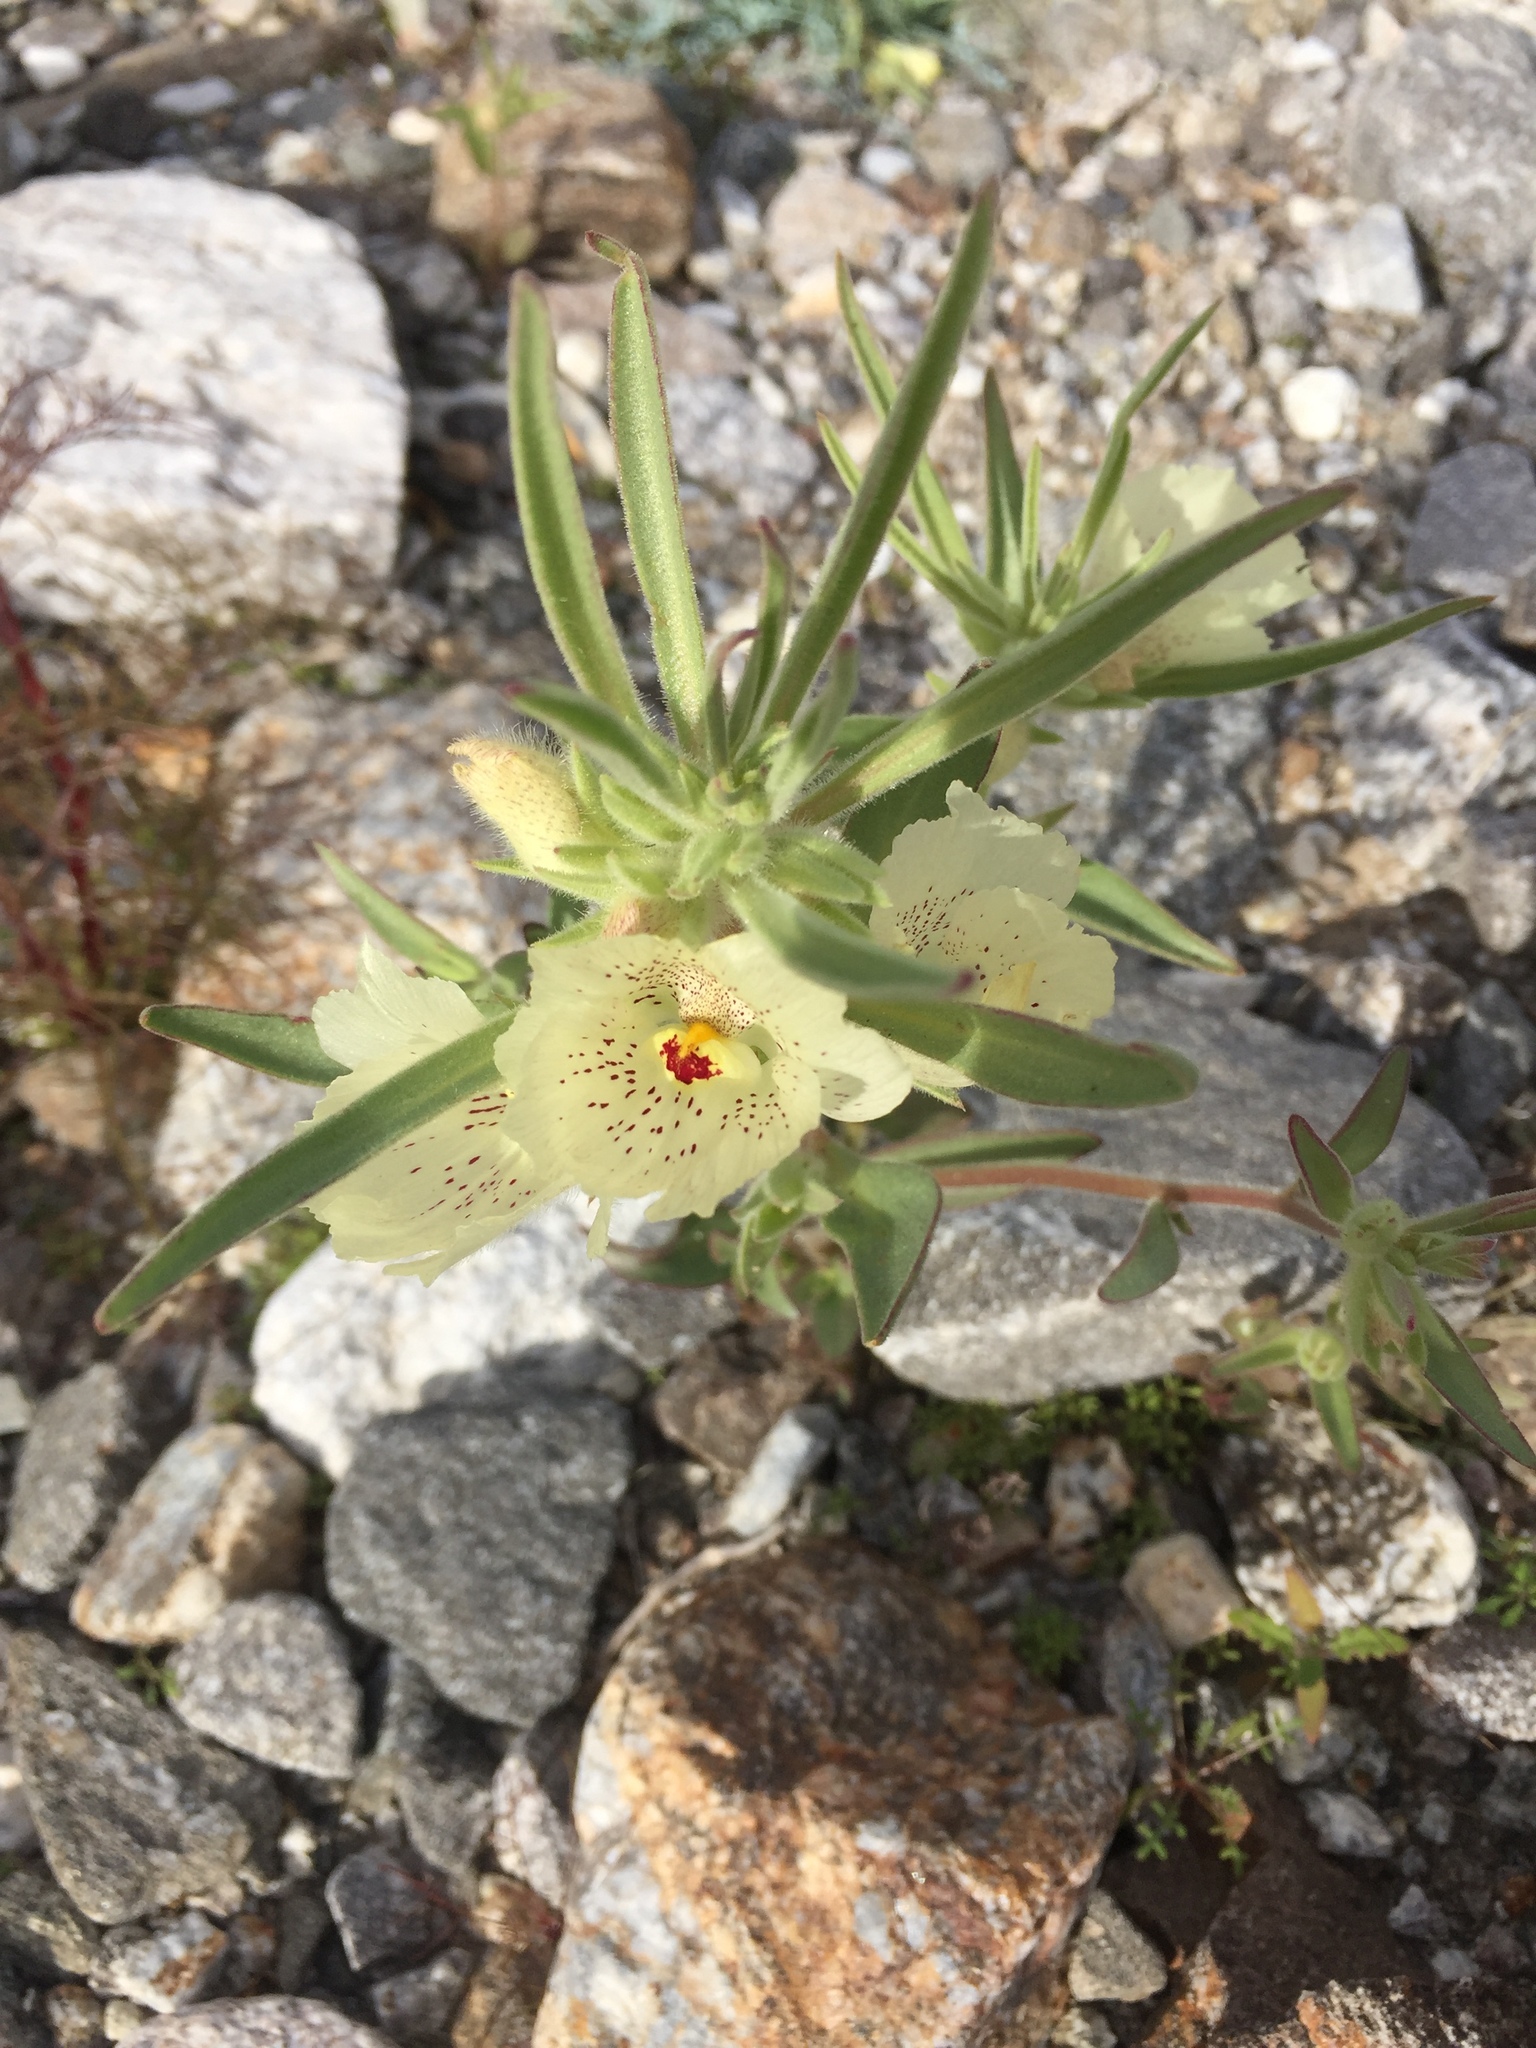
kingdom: Plantae
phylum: Tracheophyta
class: Magnoliopsida
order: Lamiales
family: Plantaginaceae
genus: Mohavea
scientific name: Mohavea confertiflora
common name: Ghost flower
